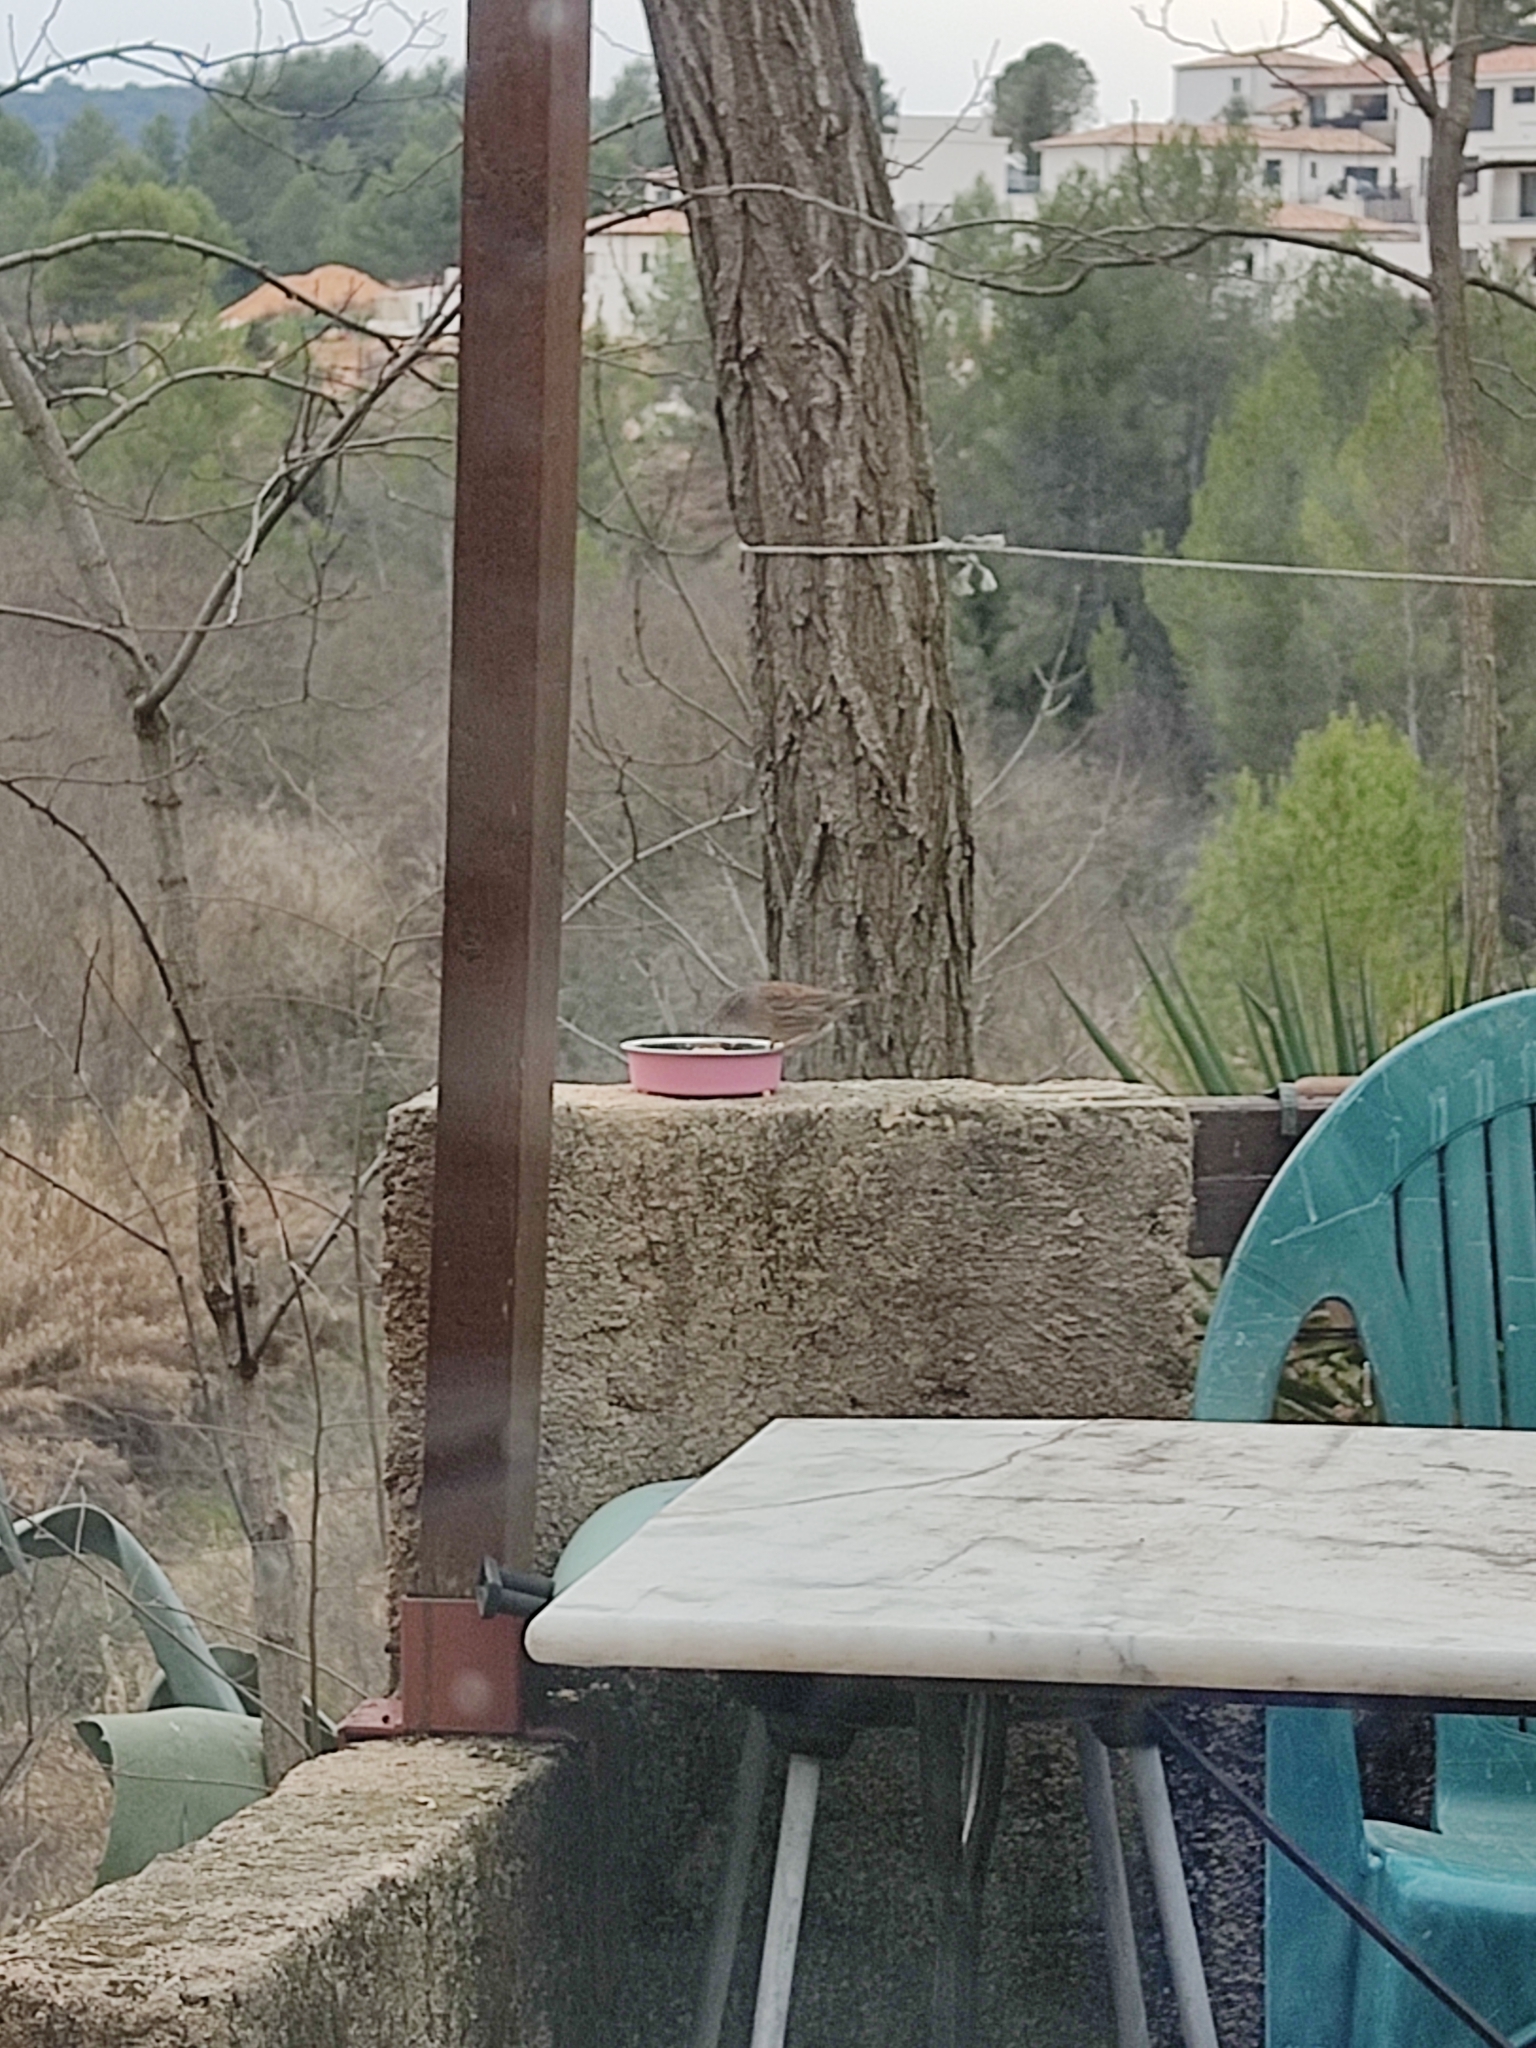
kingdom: Animalia
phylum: Chordata
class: Aves
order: Passeriformes
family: Prunellidae
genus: Prunella
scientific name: Prunella modularis
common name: Dunnock
